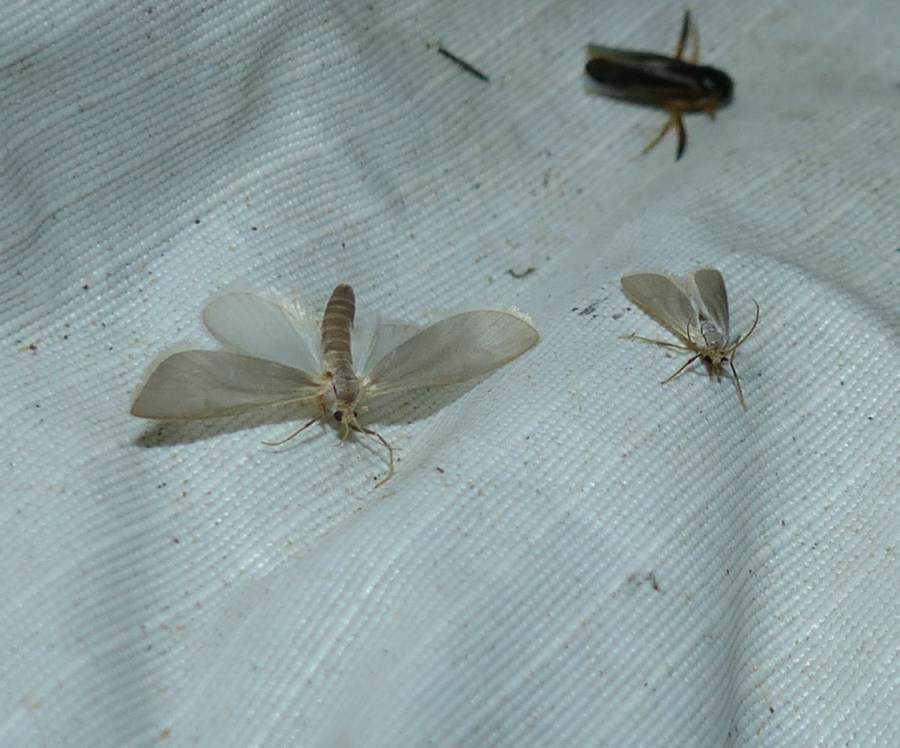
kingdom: Animalia
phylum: Arthropoda
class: Insecta
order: Lepidoptera
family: Crambidae
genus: Acentria
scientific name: Acentria ephemerella
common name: European water moth
